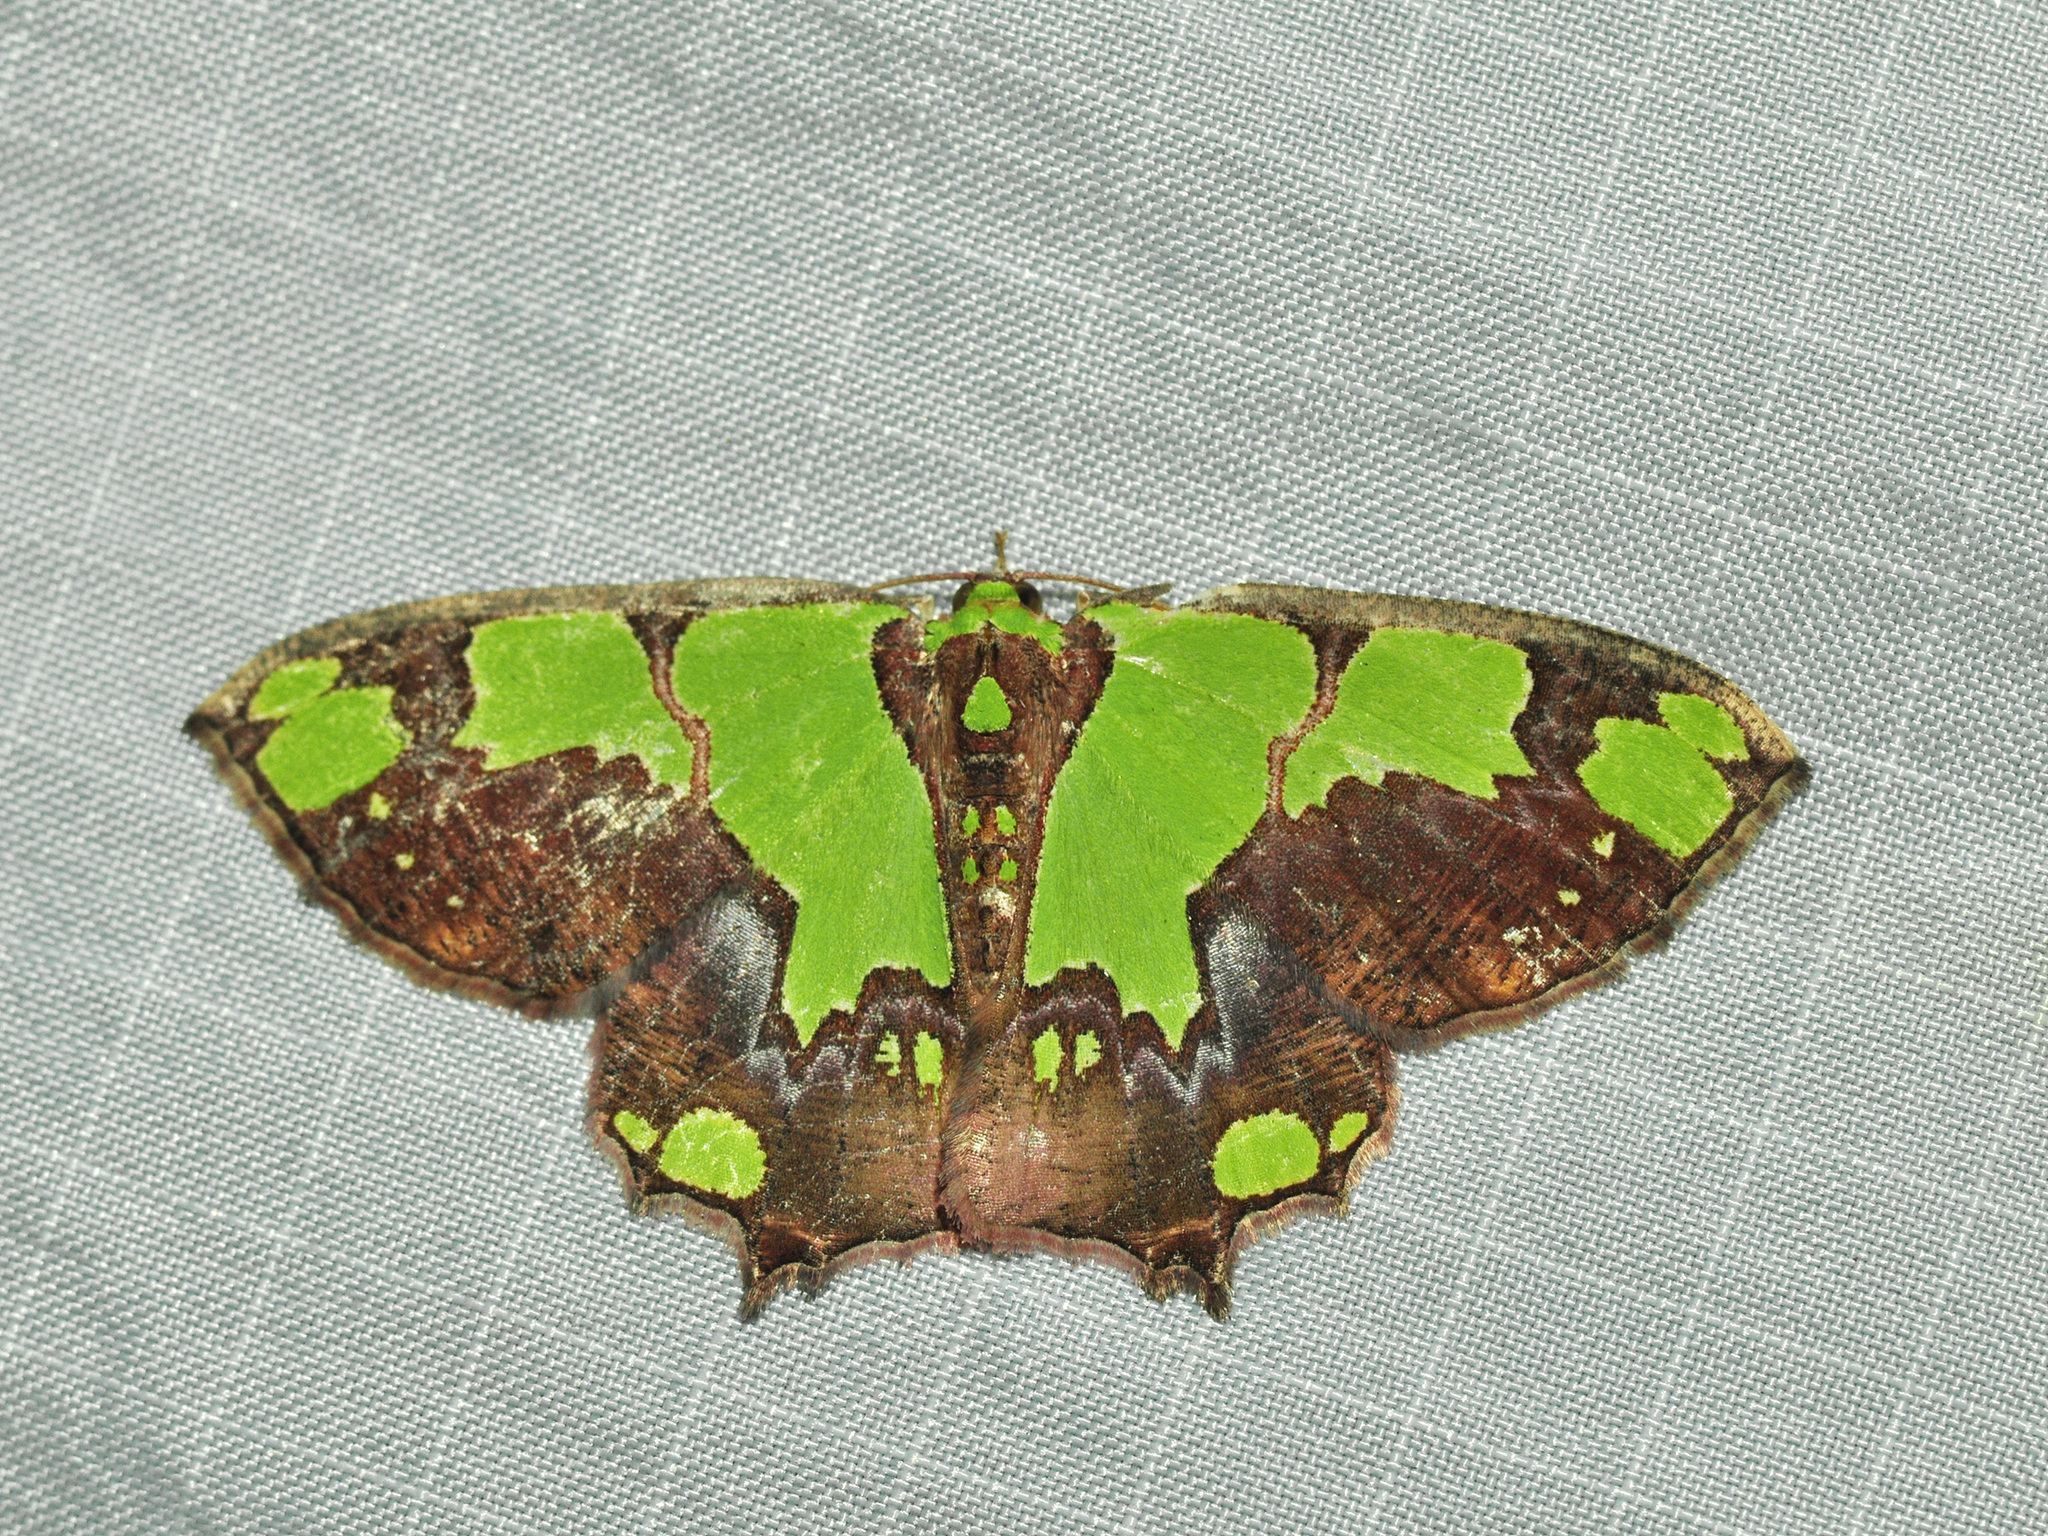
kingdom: Animalia
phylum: Arthropoda
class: Insecta
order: Lepidoptera
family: Geometridae
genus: Agathia
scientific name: Agathia arcuata
